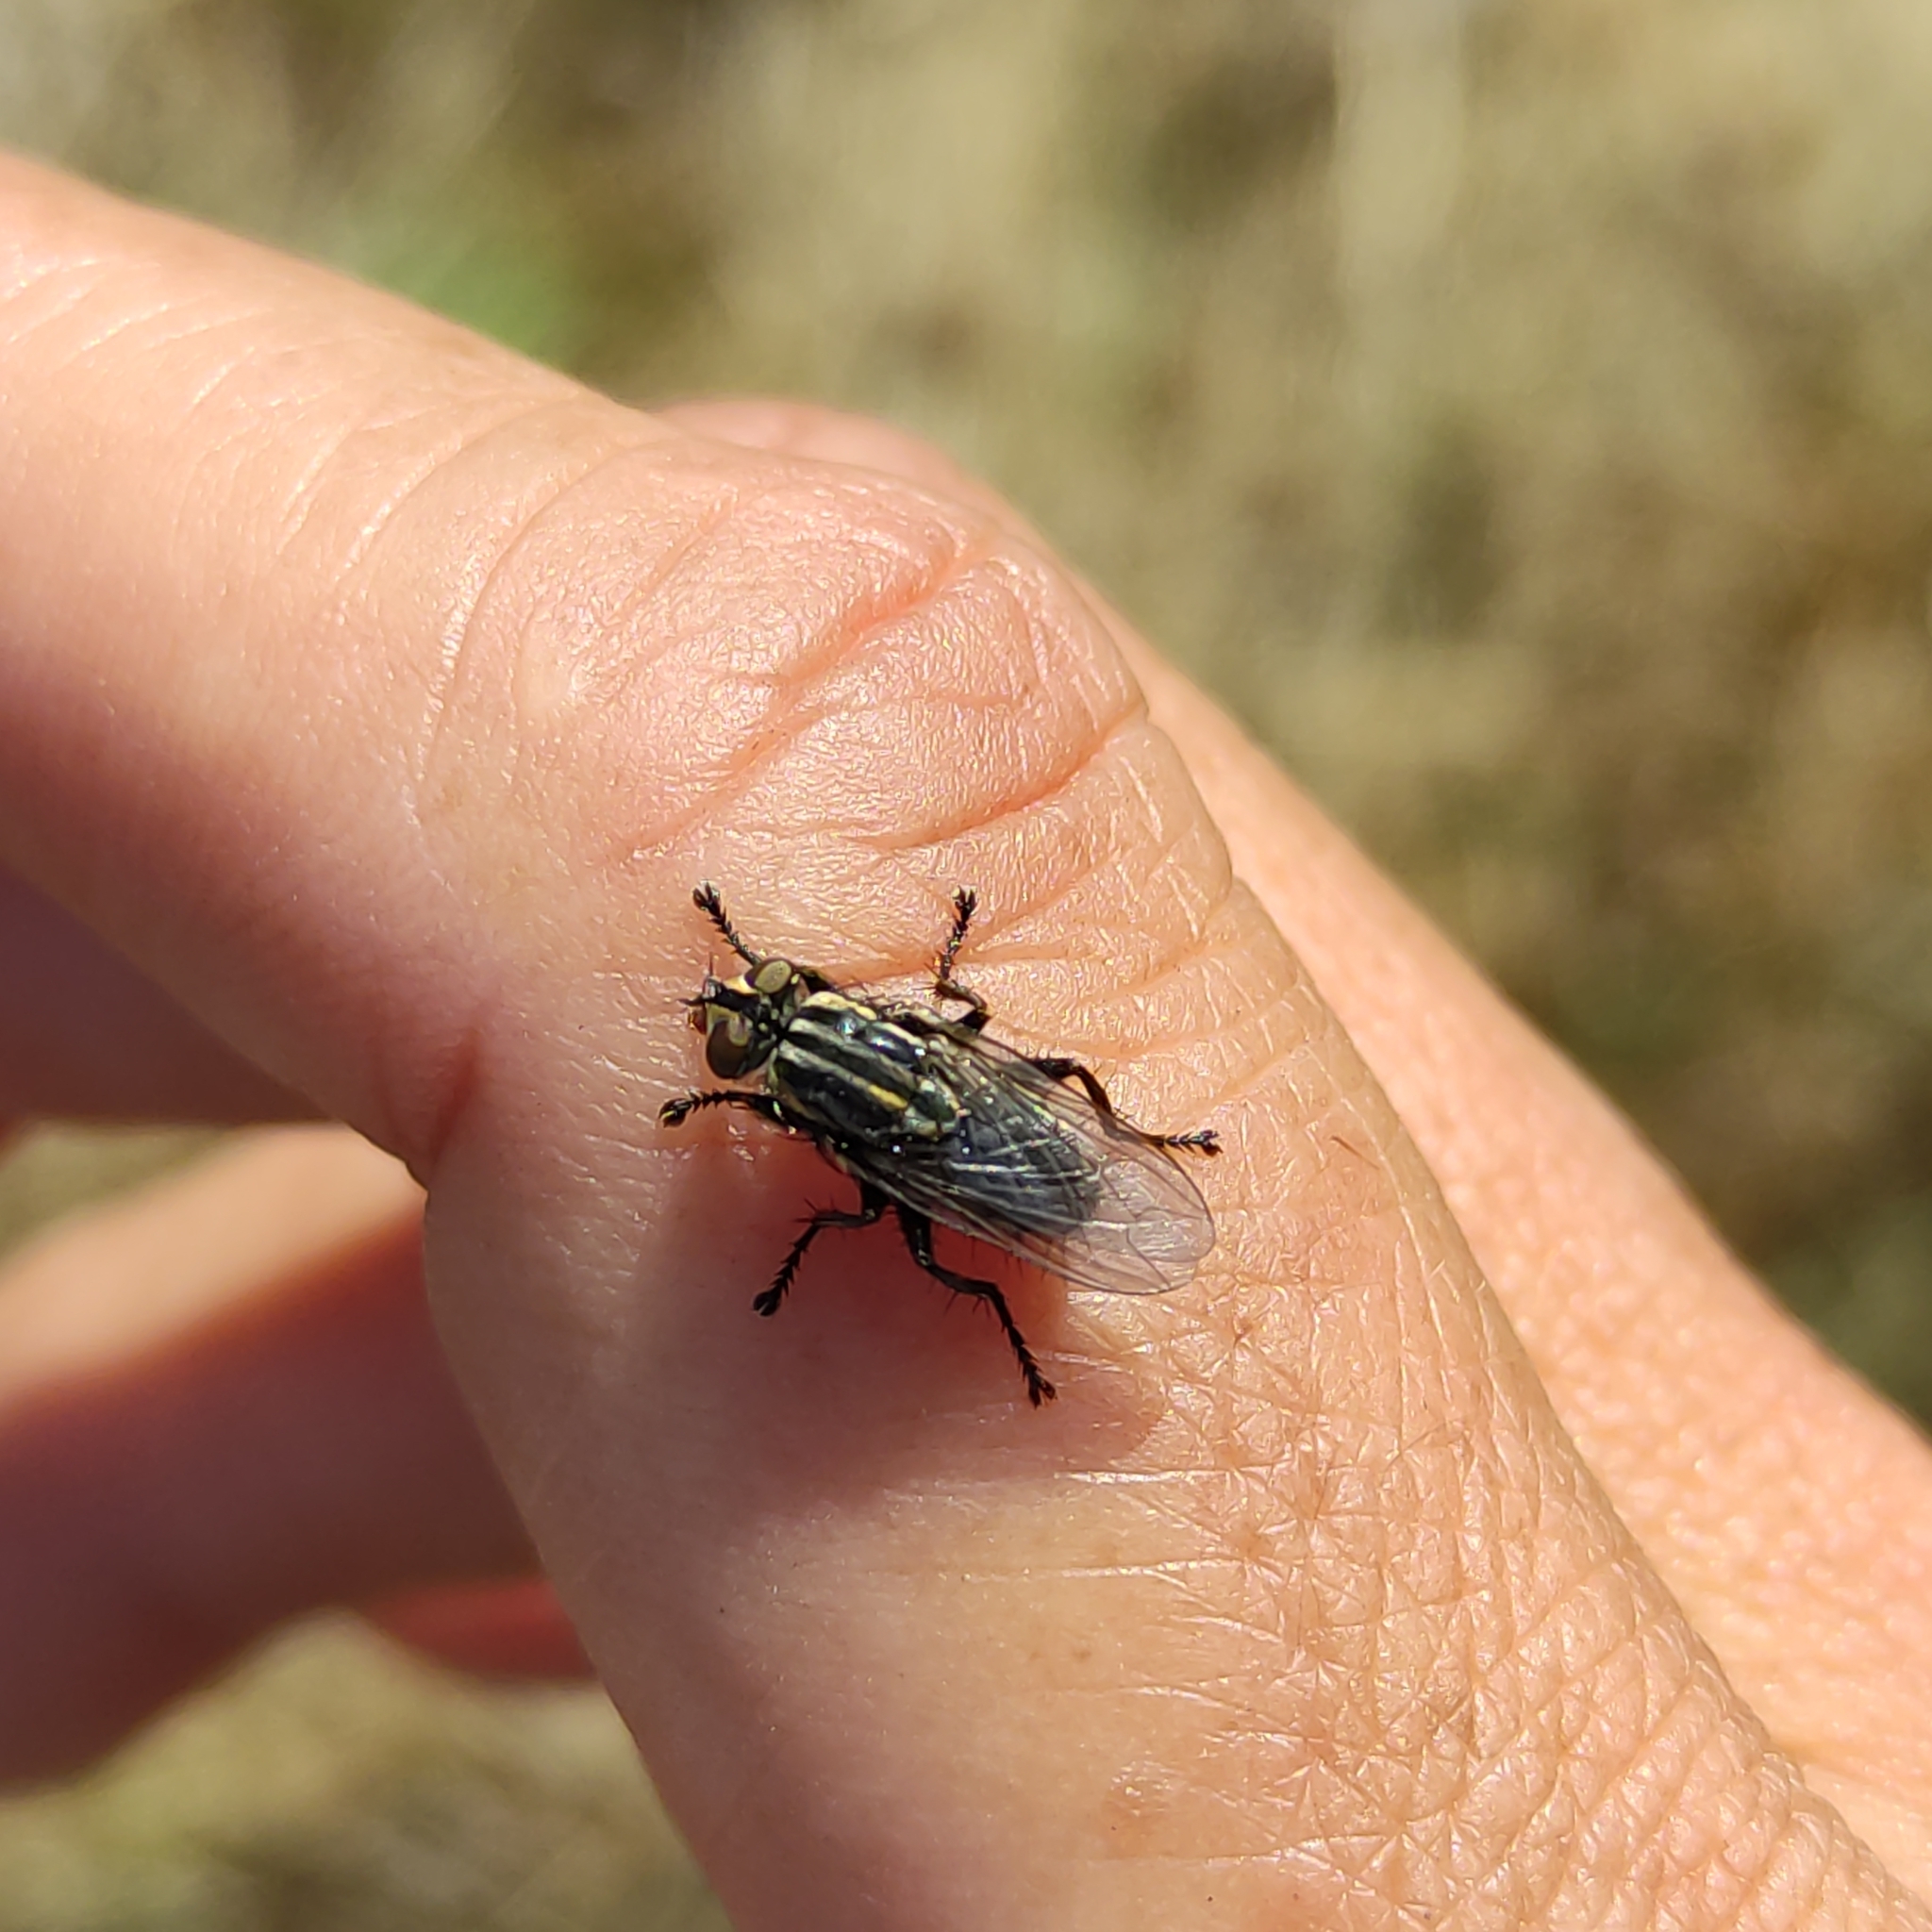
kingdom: Animalia
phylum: Arthropoda
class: Insecta
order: Diptera
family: Sarcophagidae
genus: Oxysarcodexia
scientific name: Oxysarcodexia varia
